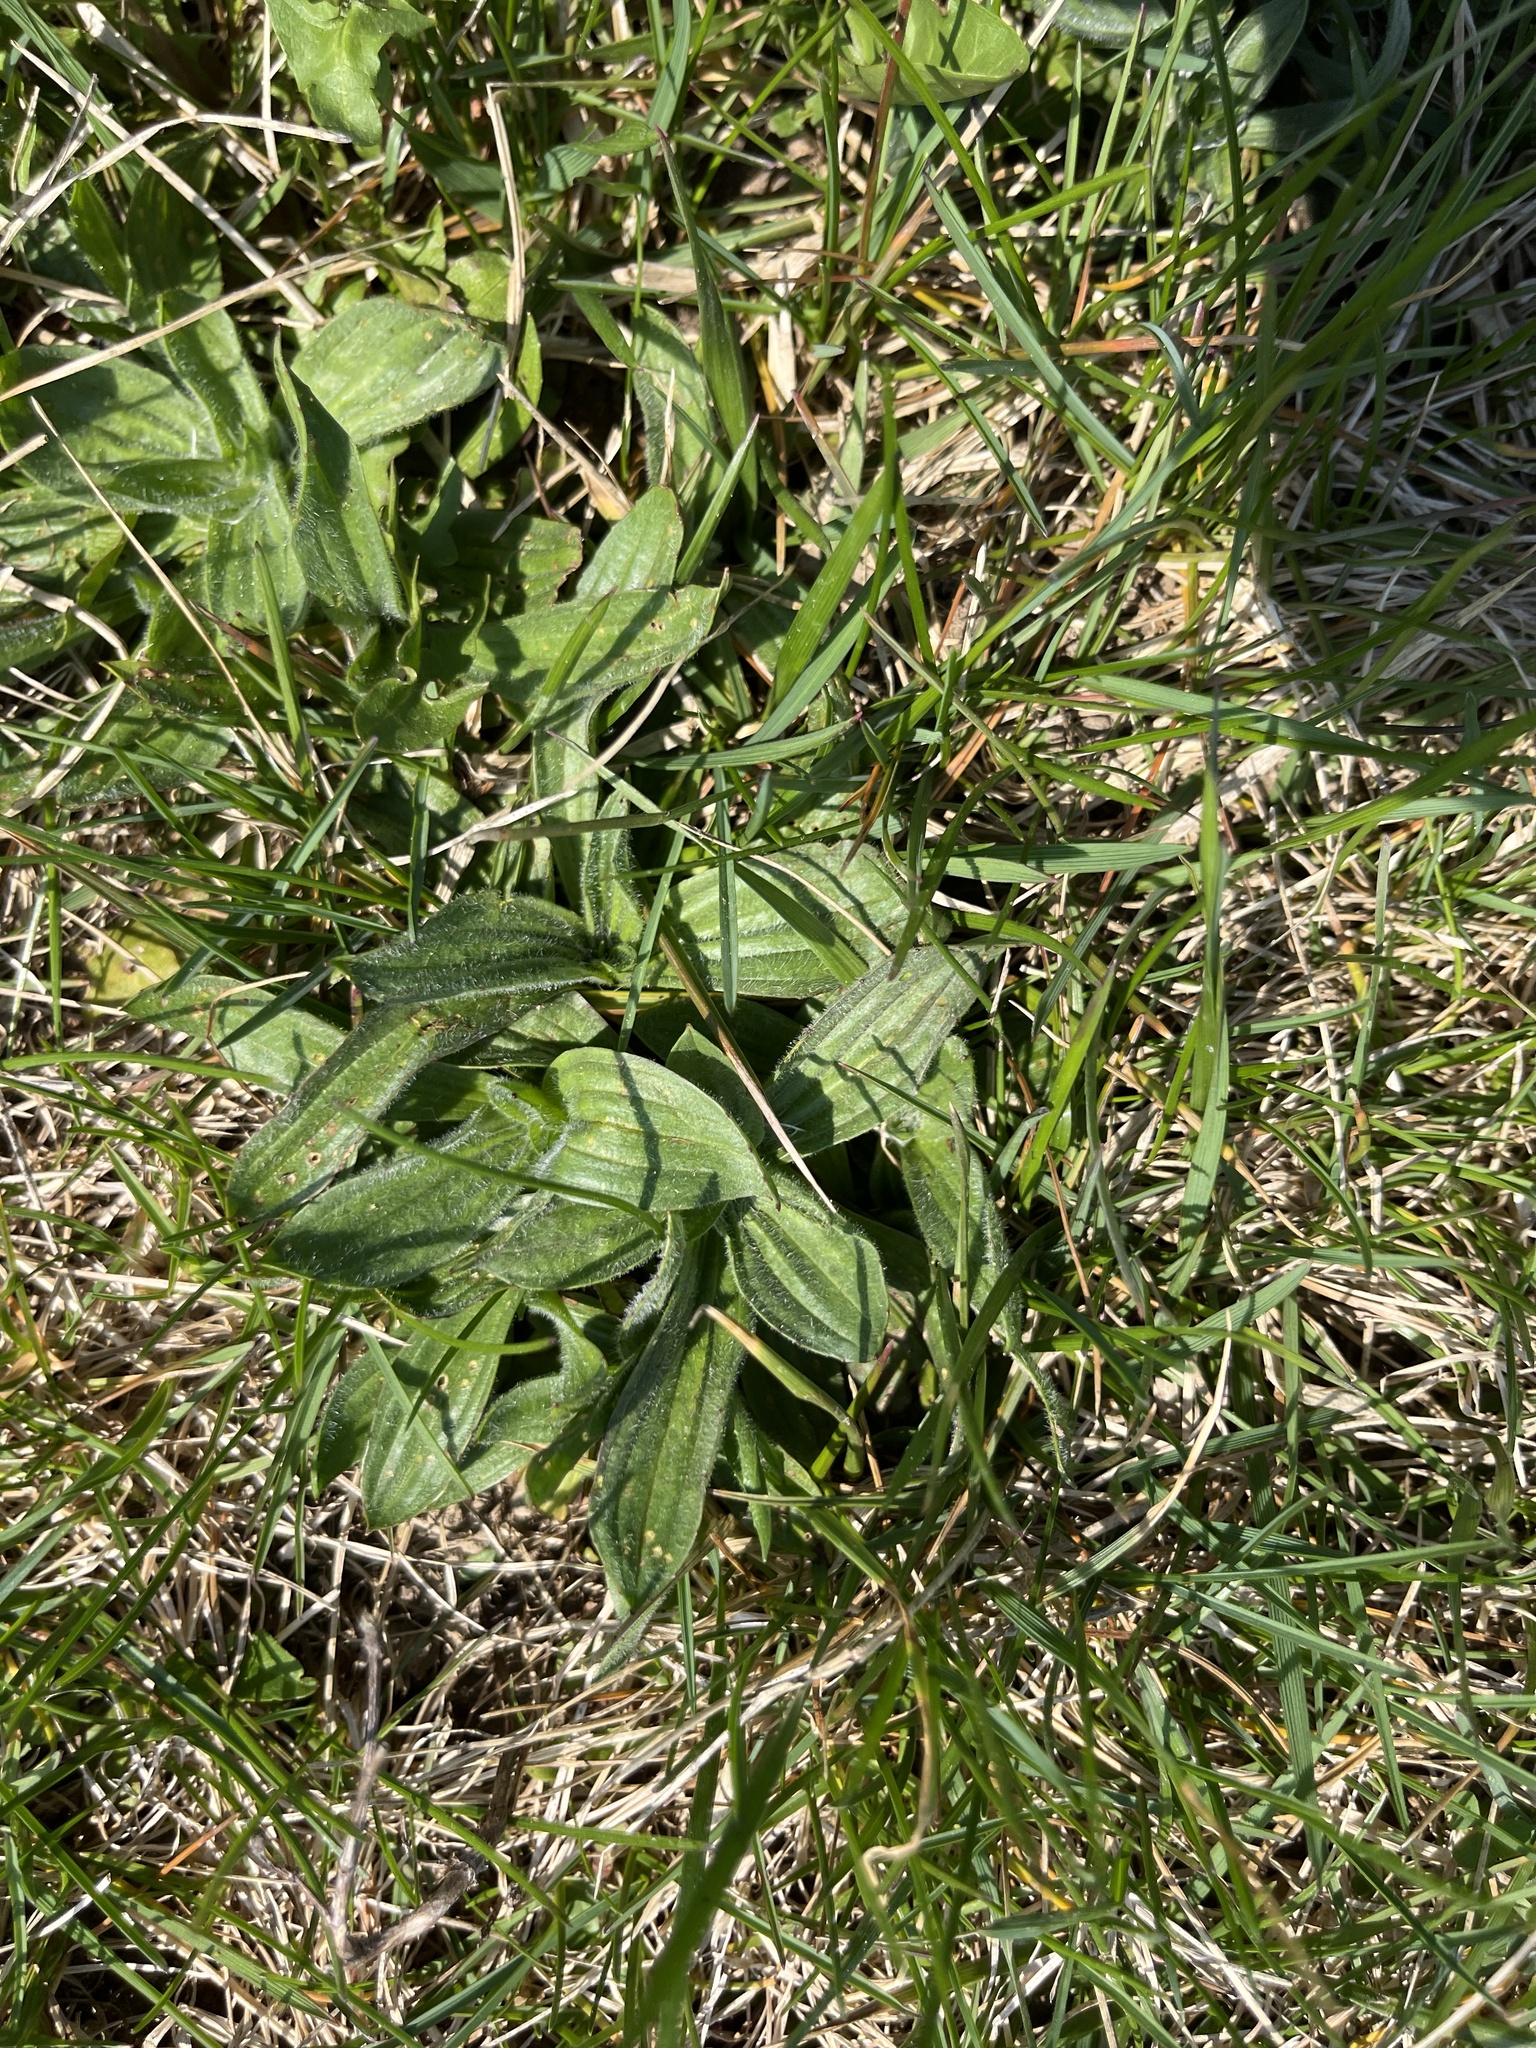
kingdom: Plantae
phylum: Tracheophyta
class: Magnoliopsida
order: Lamiales
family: Plantaginaceae
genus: Plantago
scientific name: Plantago lanceolata
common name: Ribwort plantain
